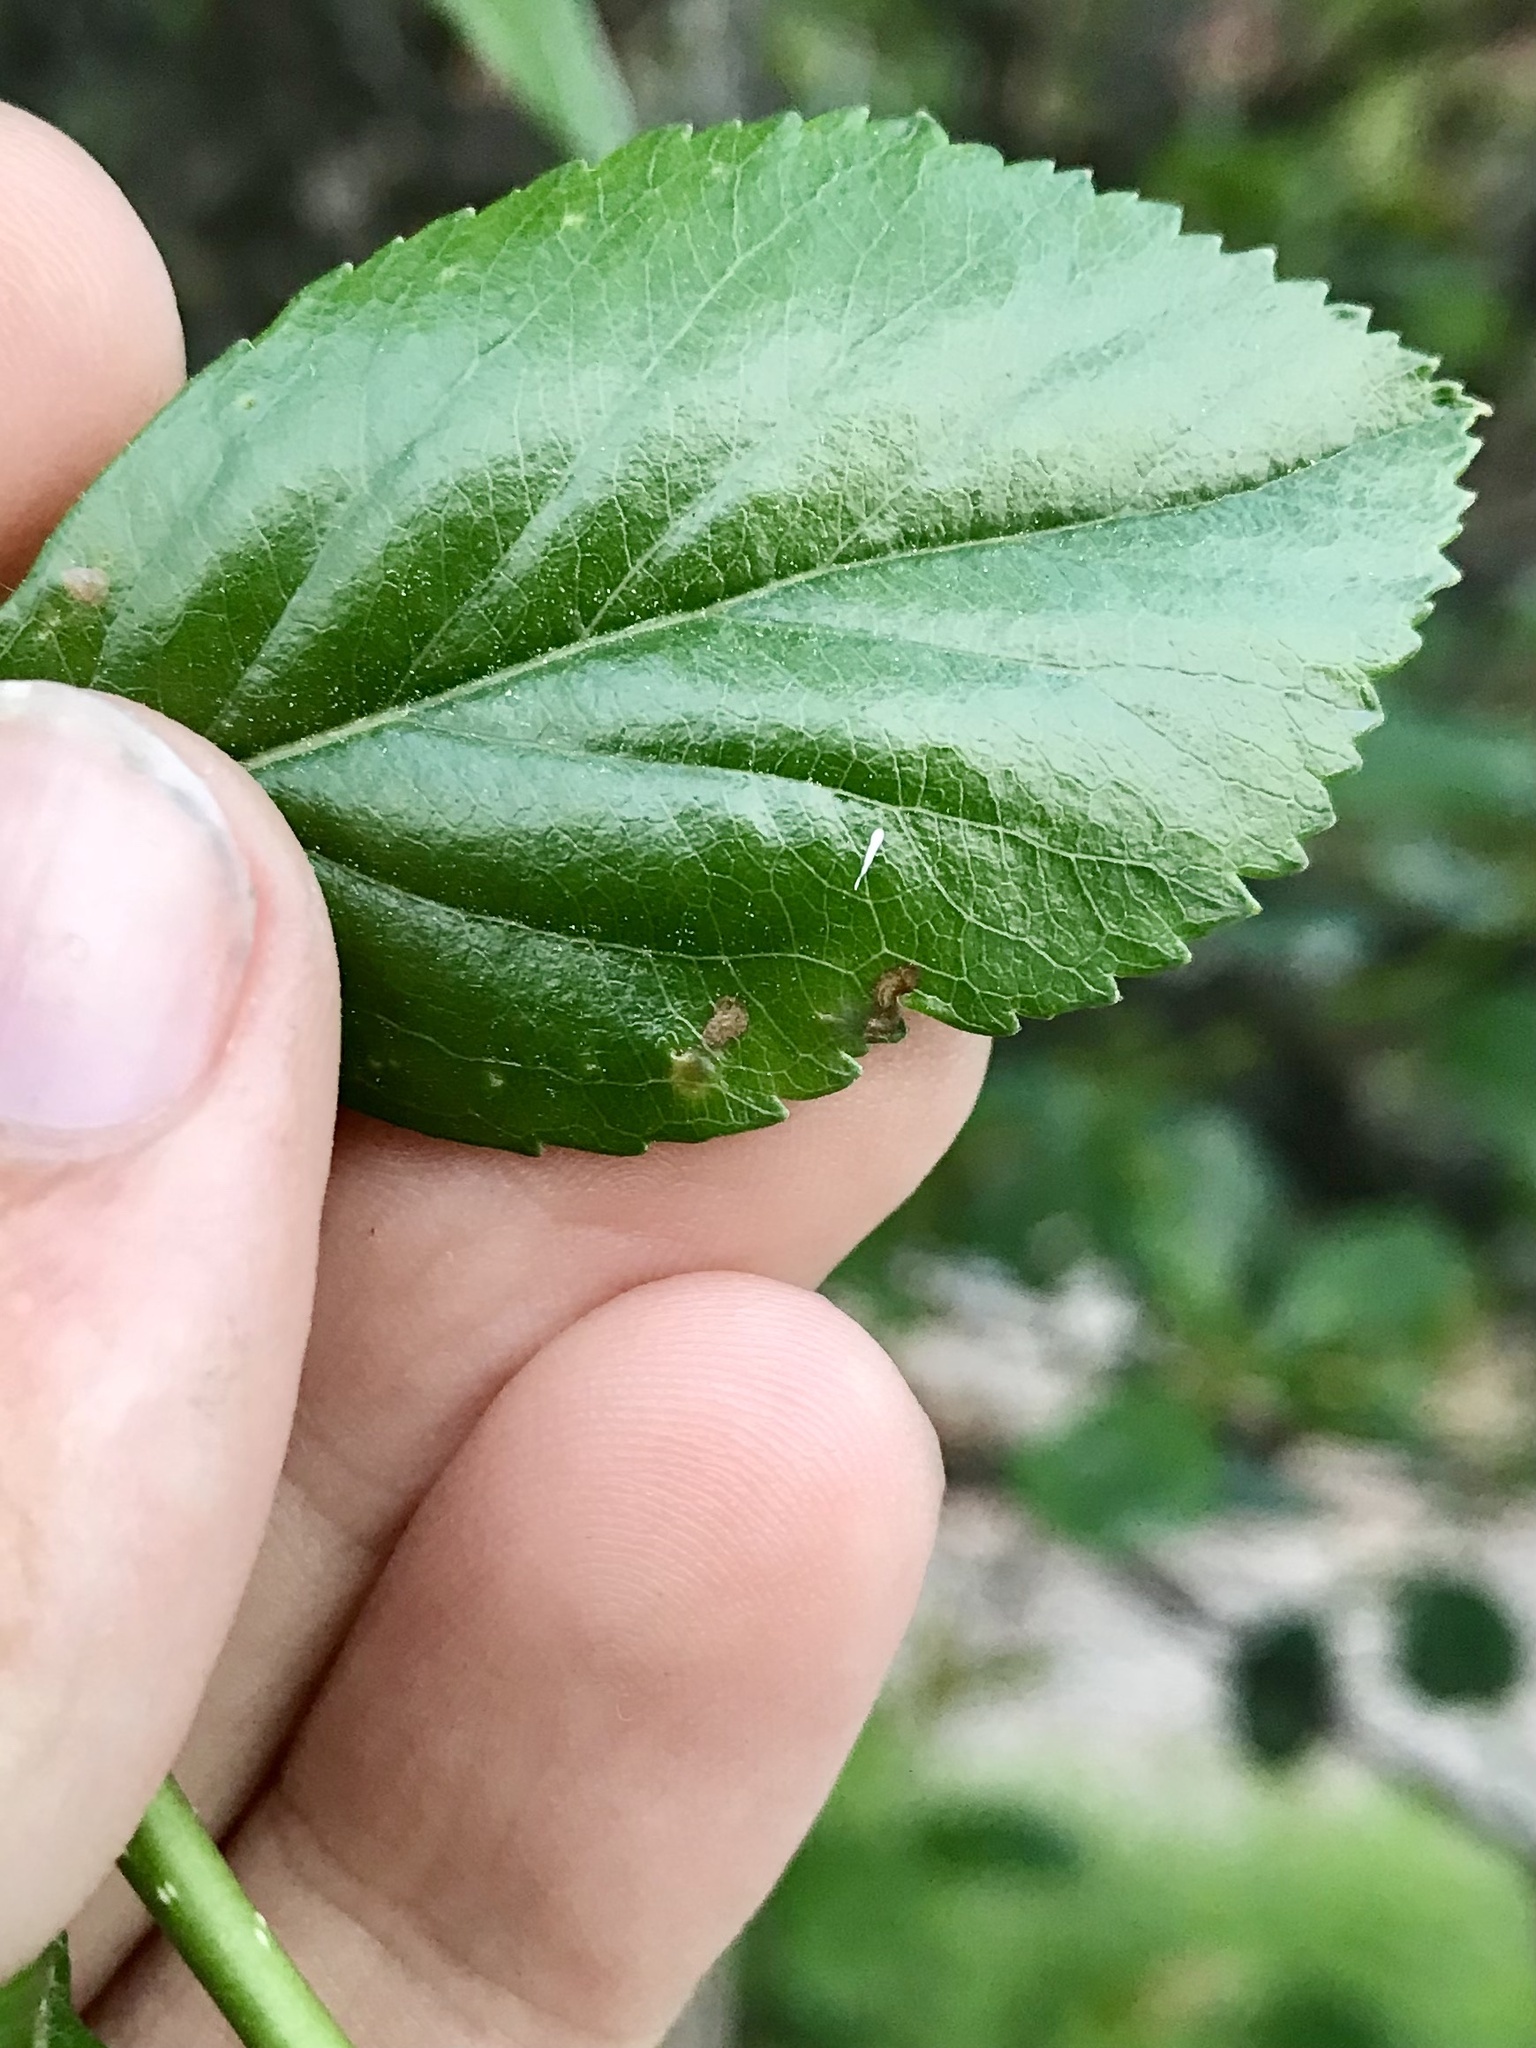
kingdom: Animalia
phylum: Arthropoda
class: Insecta
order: Hymenoptera
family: Tenthredinidae
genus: Profenusa
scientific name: Profenusa
